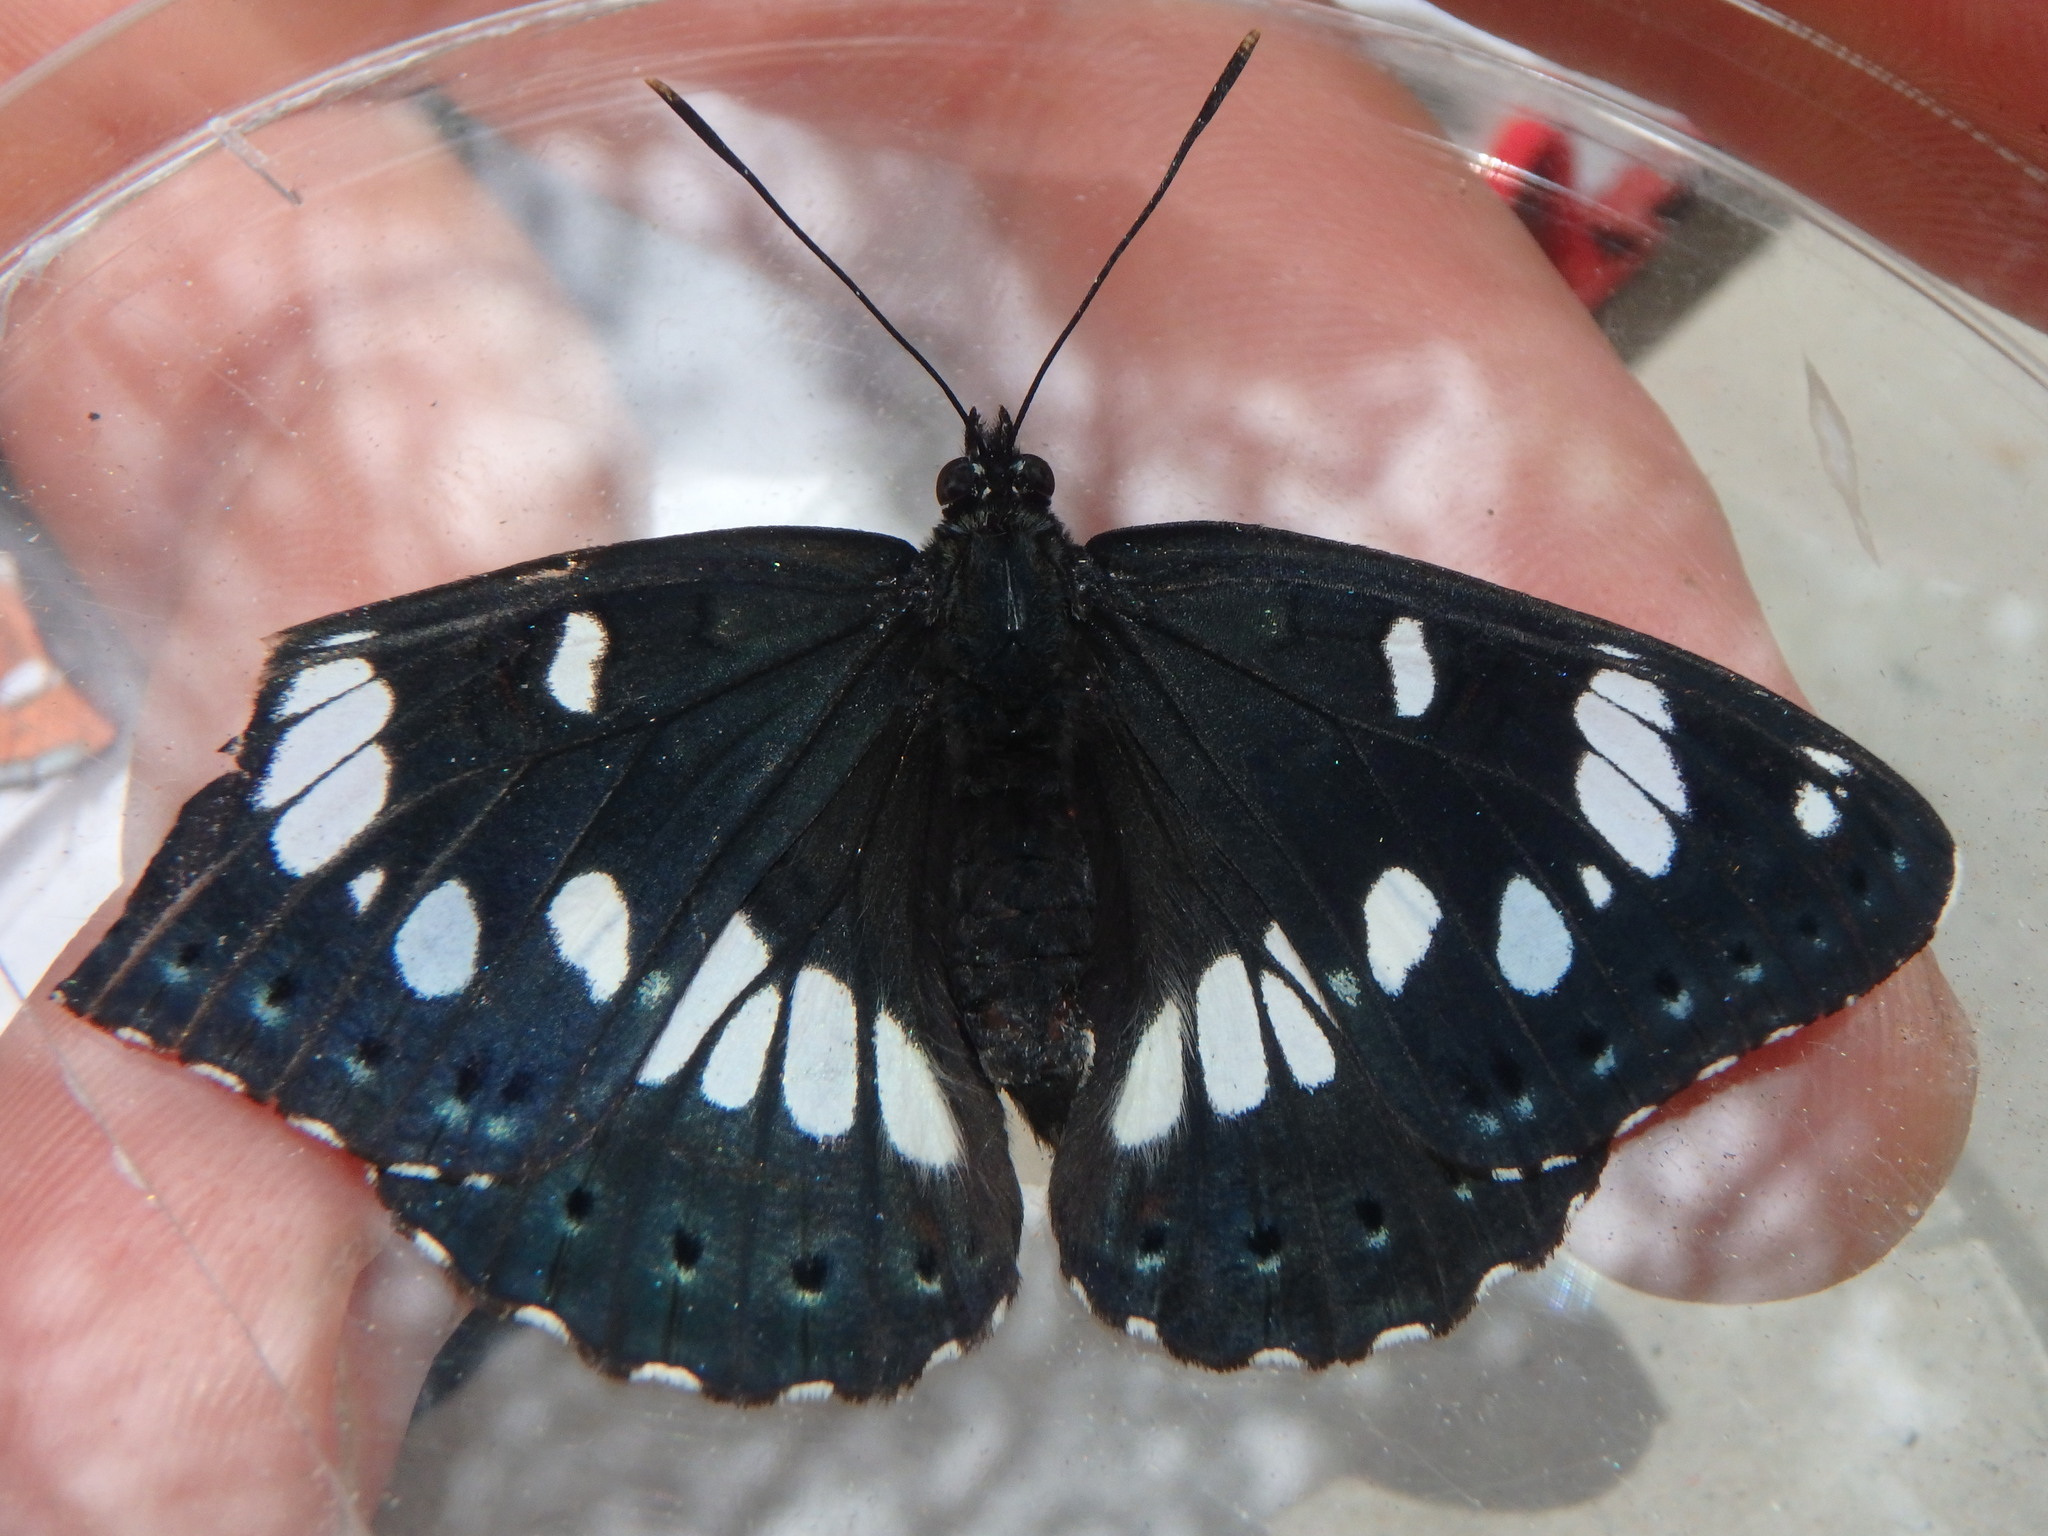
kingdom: Animalia
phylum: Arthropoda
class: Insecta
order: Lepidoptera
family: Nymphalidae
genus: Limenitis
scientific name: Limenitis reducta
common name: Southern white admiral
